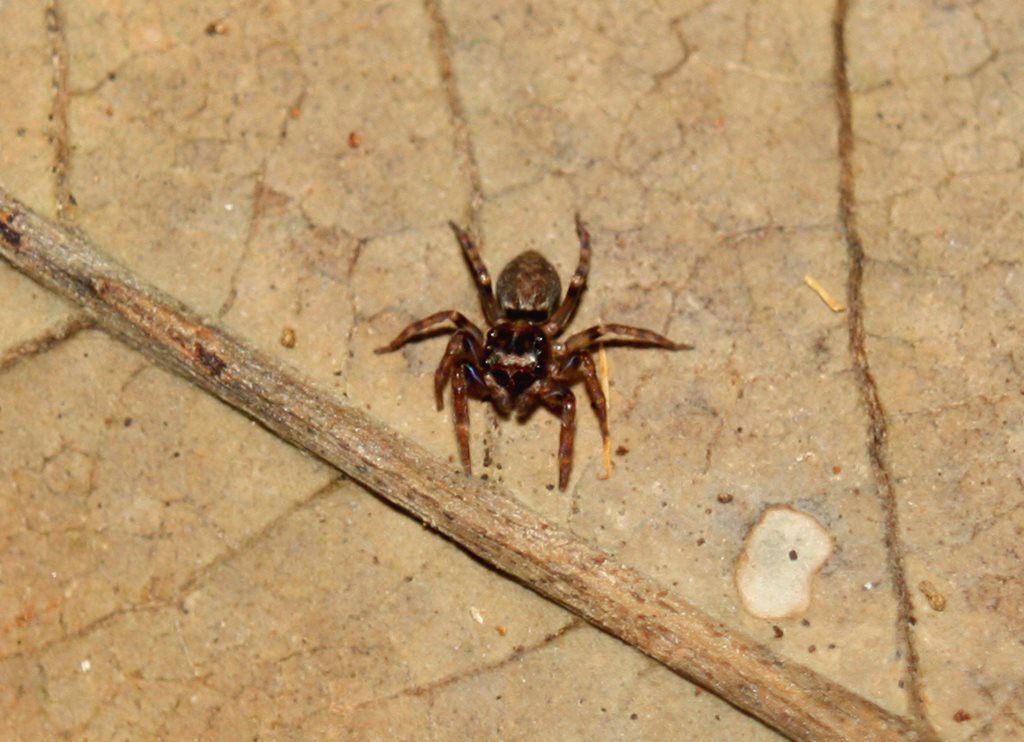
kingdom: Animalia
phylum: Arthropoda
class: Arachnida
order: Araneae
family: Salticidae
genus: Sondra
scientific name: Sondra nepenthicola
